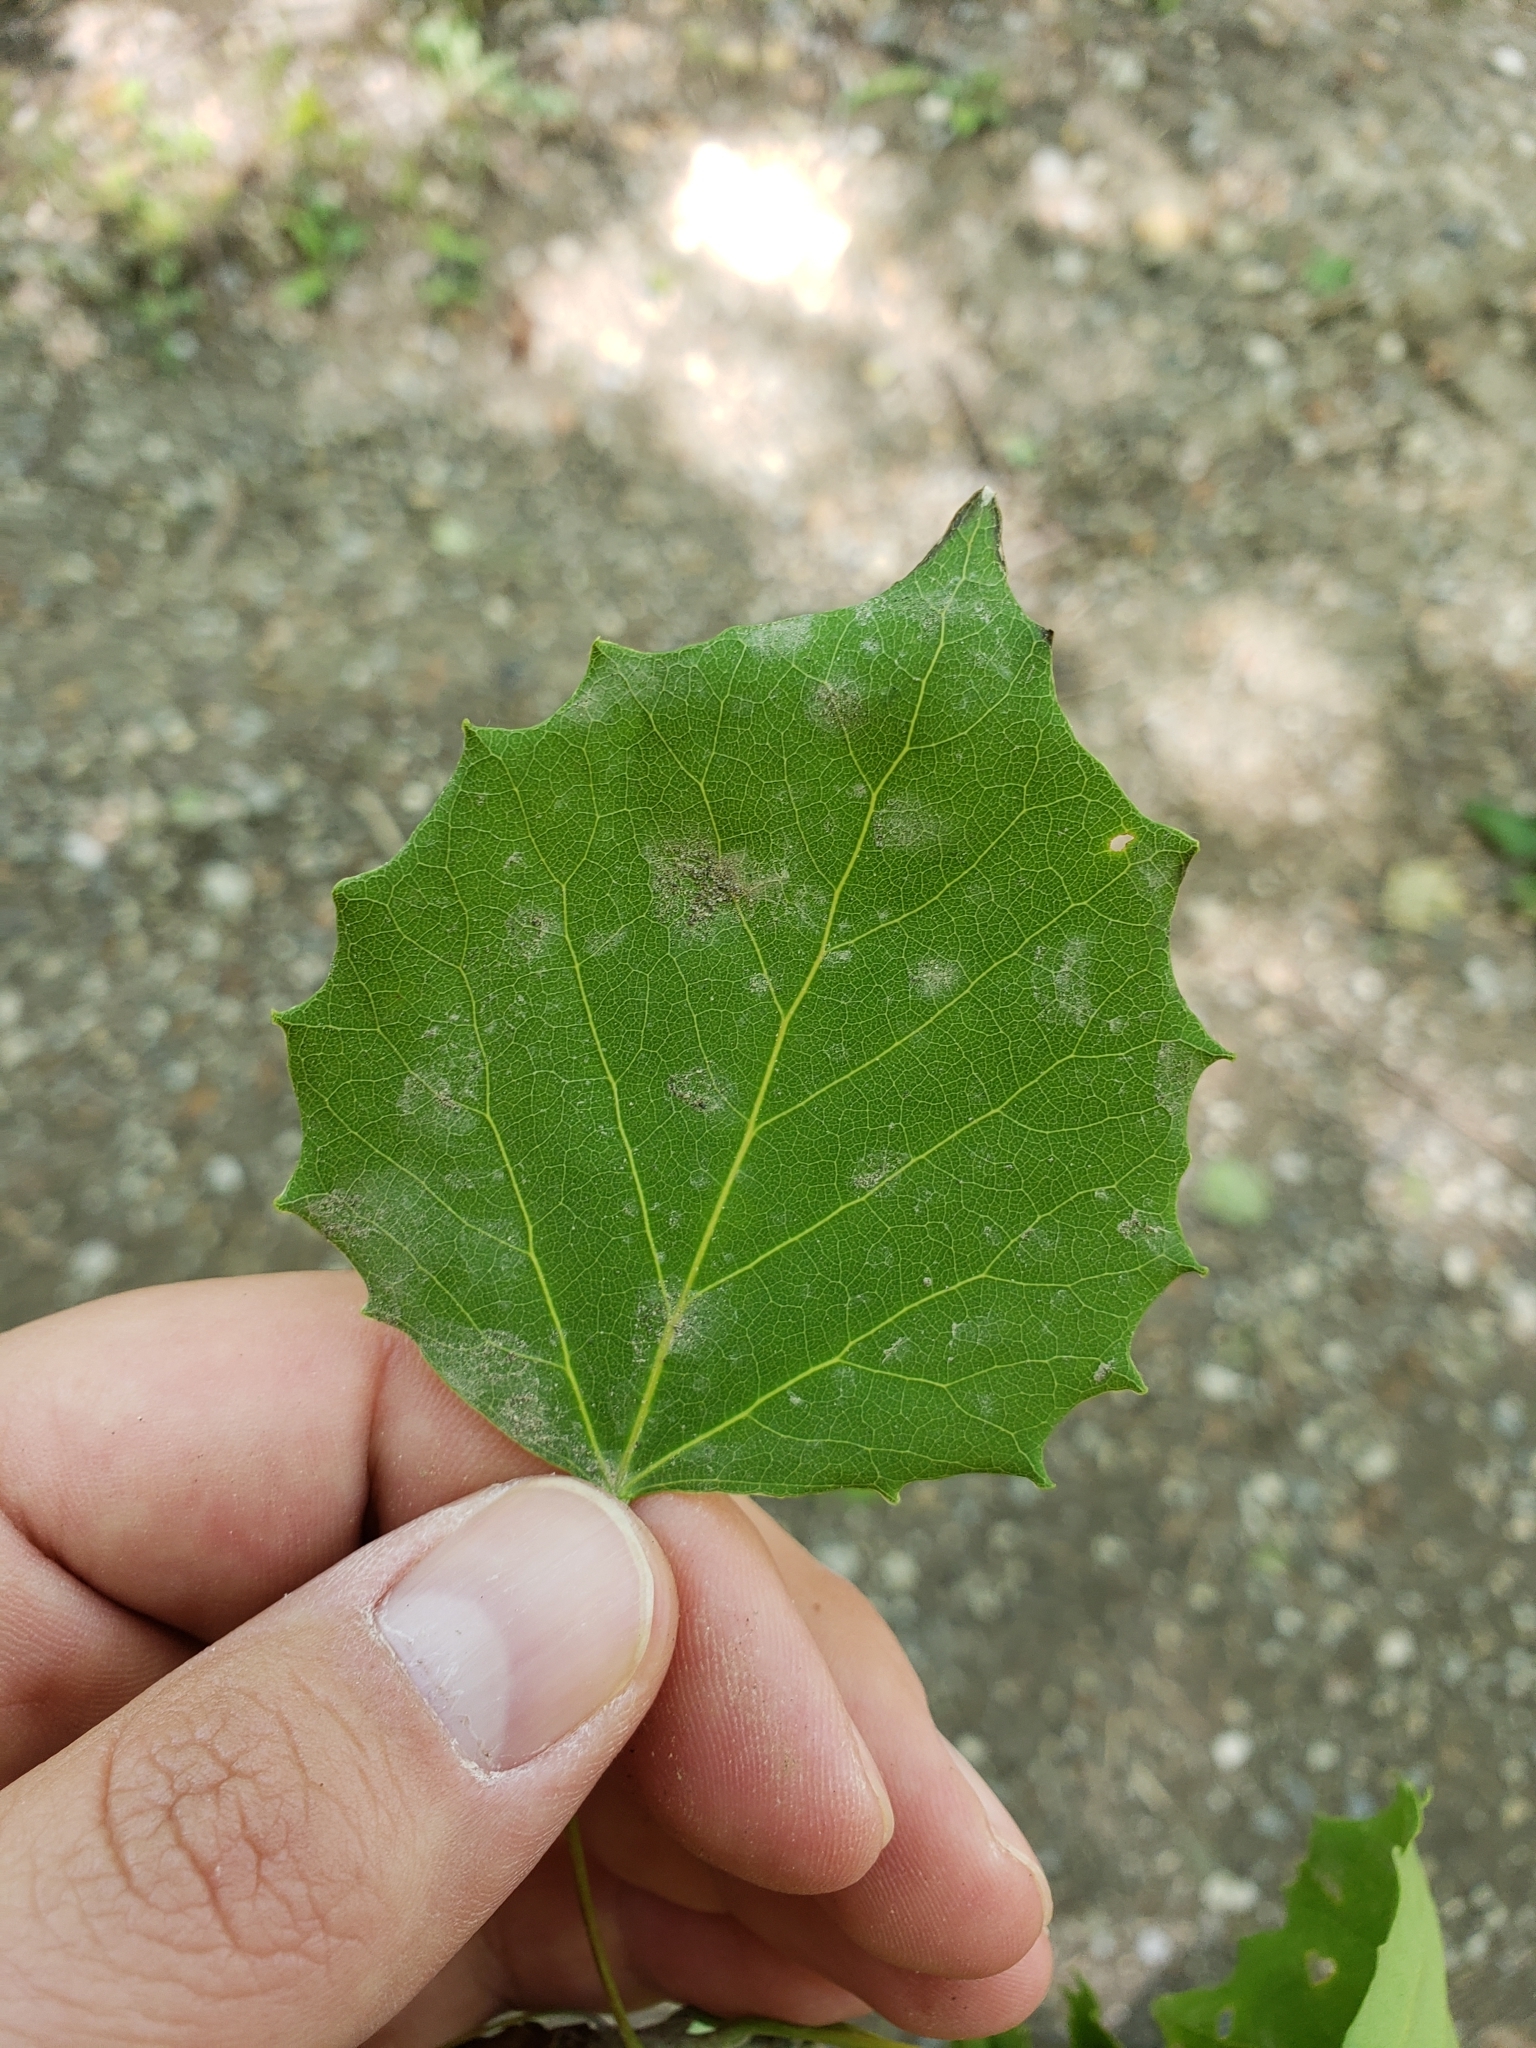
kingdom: Plantae
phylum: Tracheophyta
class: Magnoliopsida
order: Malpighiales
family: Salicaceae
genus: Populus
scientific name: Populus grandidentata
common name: Bigtooth aspen
